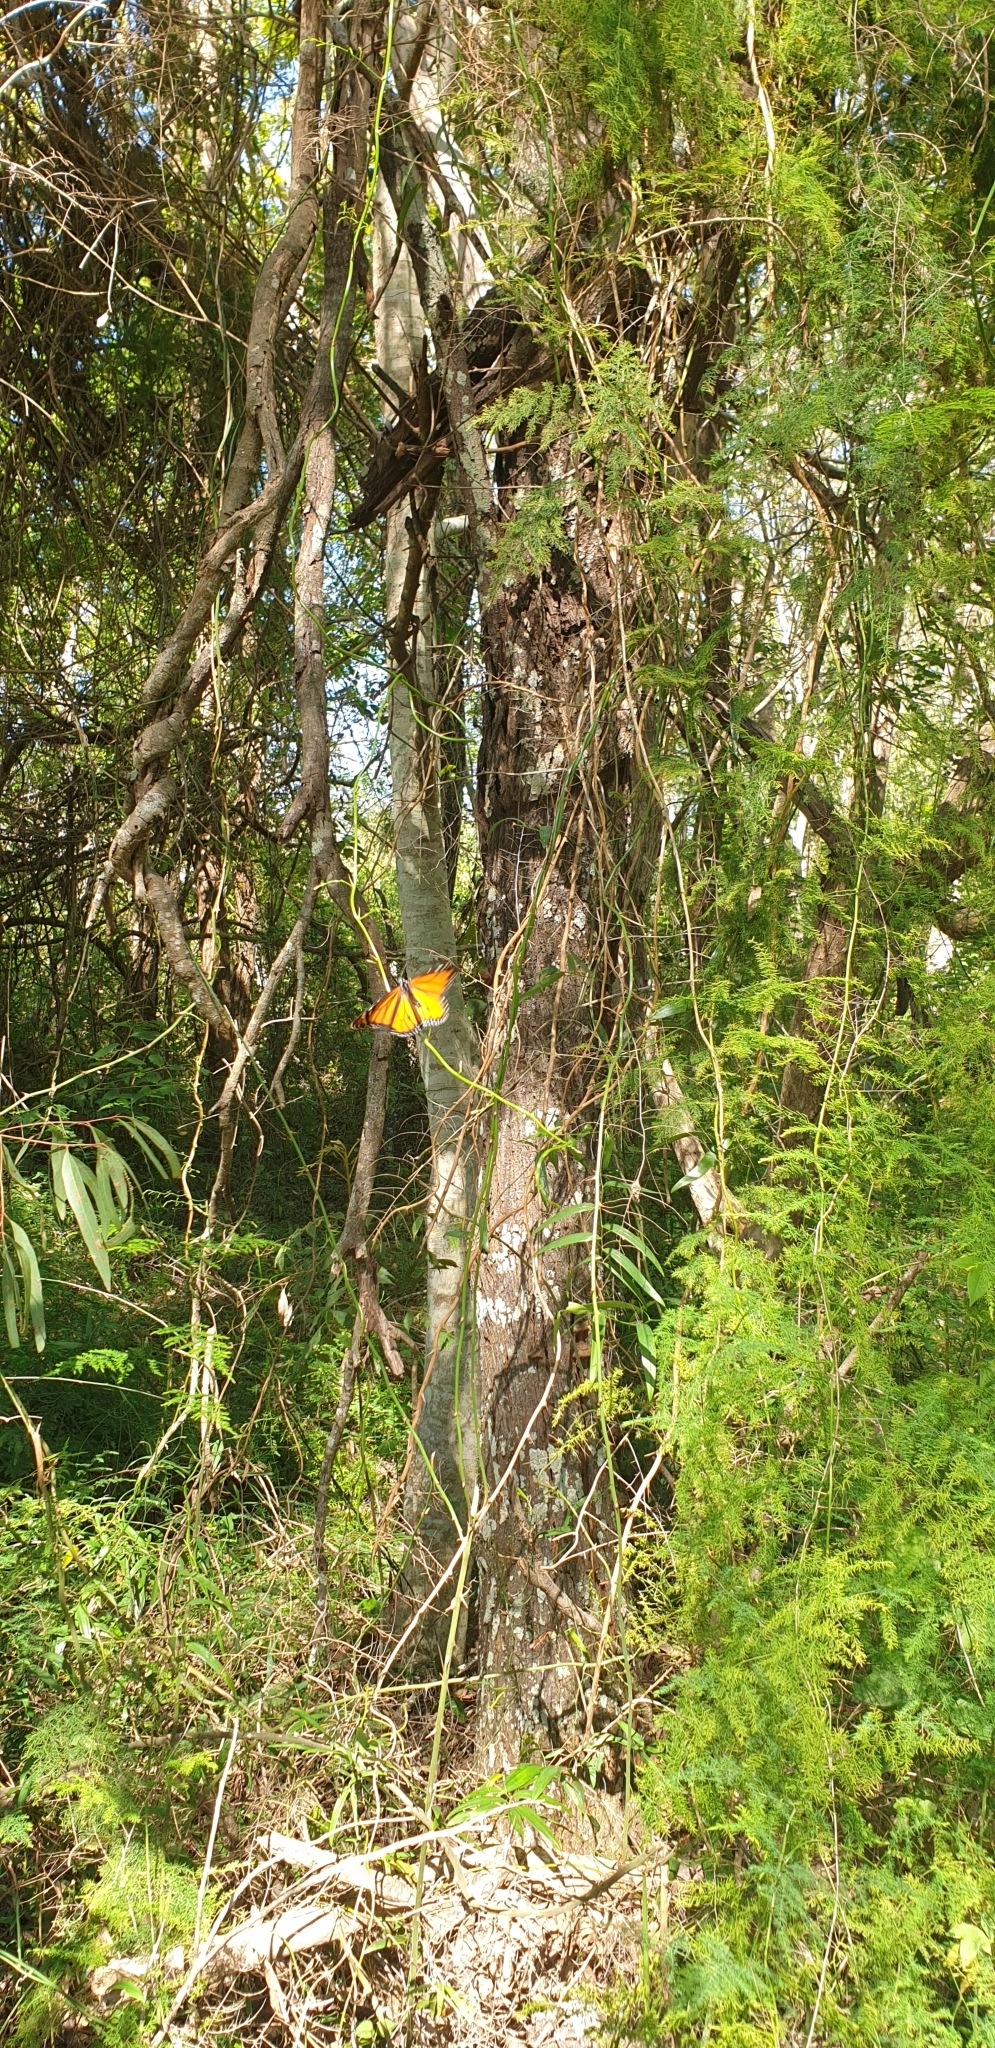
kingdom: Animalia
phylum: Arthropoda
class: Insecta
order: Lepidoptera
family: Nymphalidae
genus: Danaus
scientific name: Danaus plexippus
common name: Monarch
